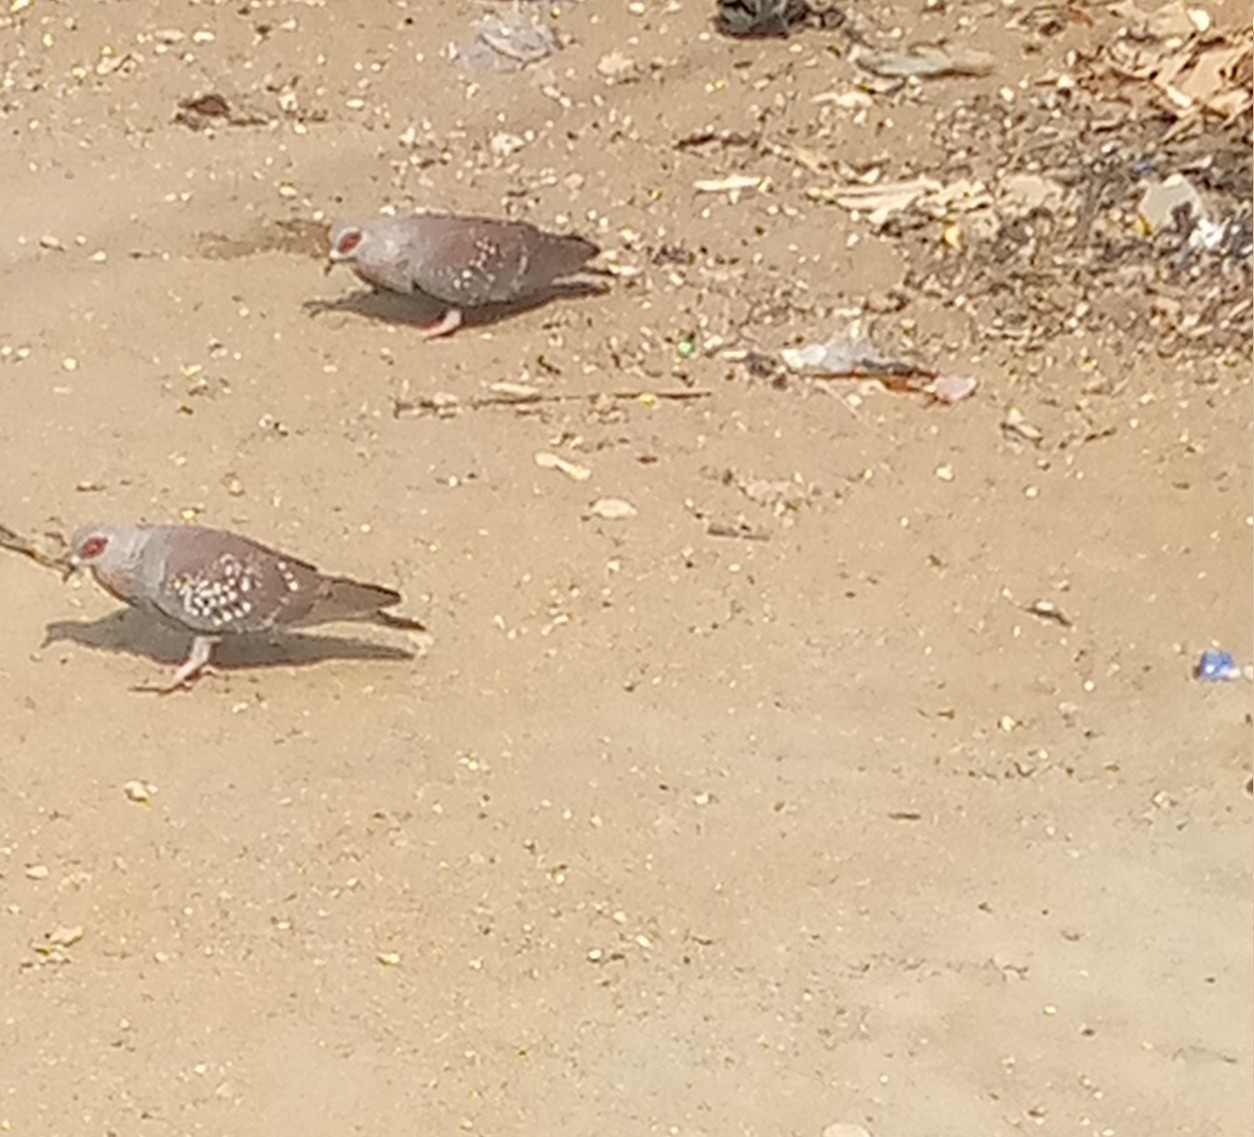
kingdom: Animalia
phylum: Chordata
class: Aves
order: Columbiformes
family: Columbidae
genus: Columba
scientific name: Columba guinea
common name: Speckled pigeon
